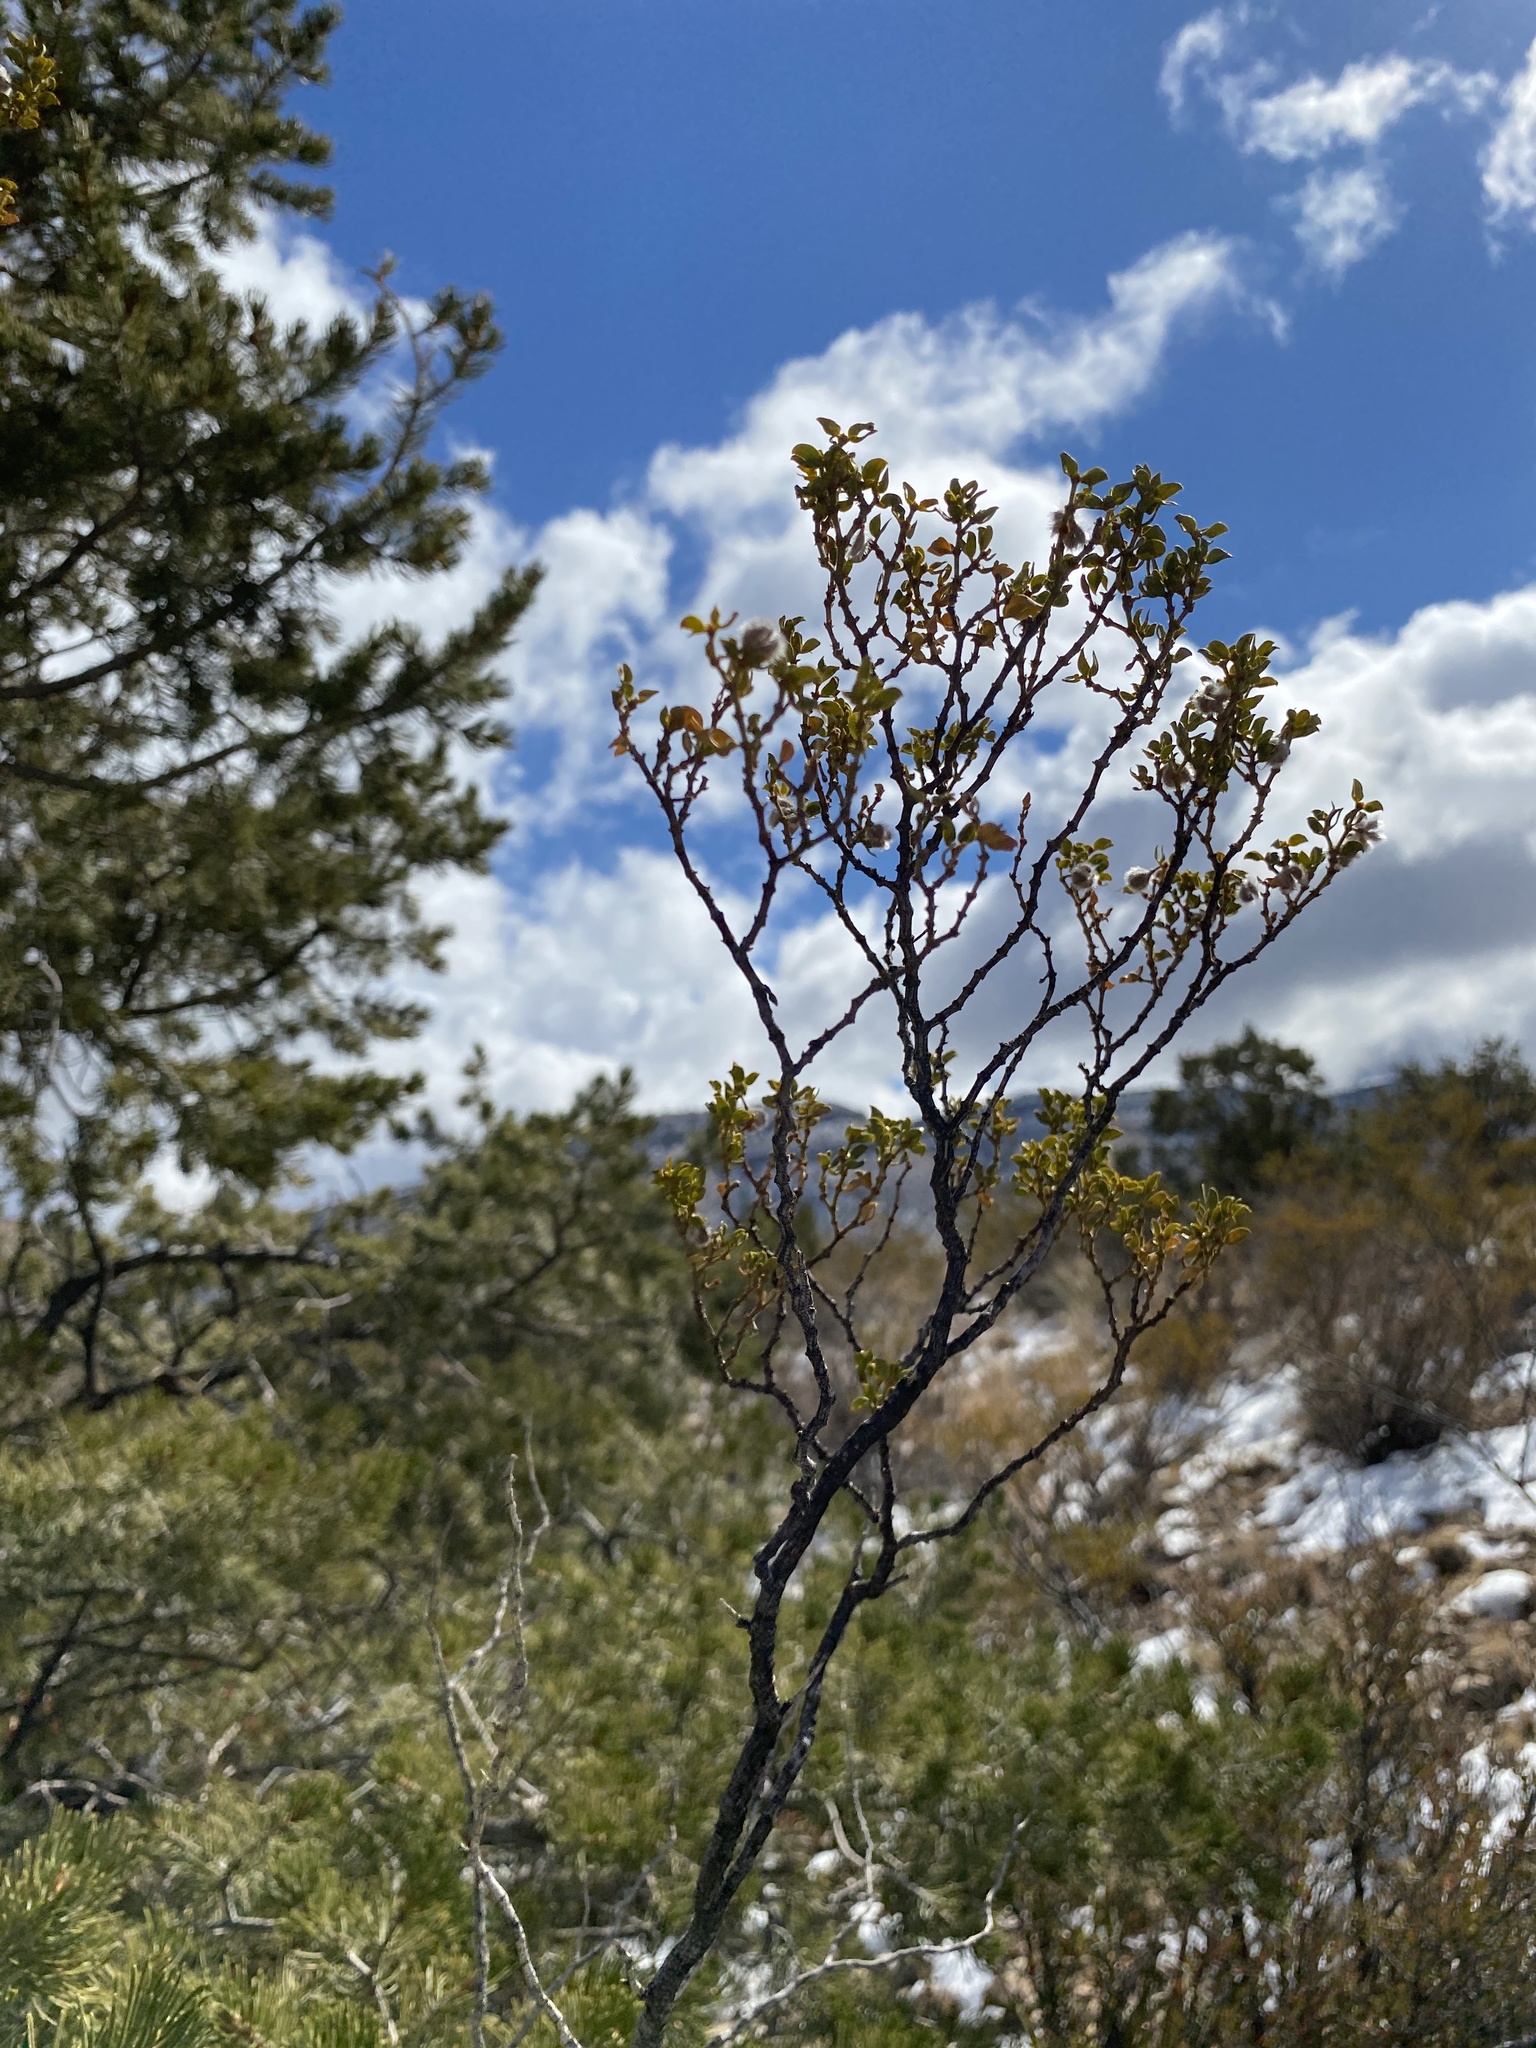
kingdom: Plantae
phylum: Tracheophyta
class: Magnoliopsida
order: Zygophyllales
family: Zygophyllaceae
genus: Larrea
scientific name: Larrea tridentata
